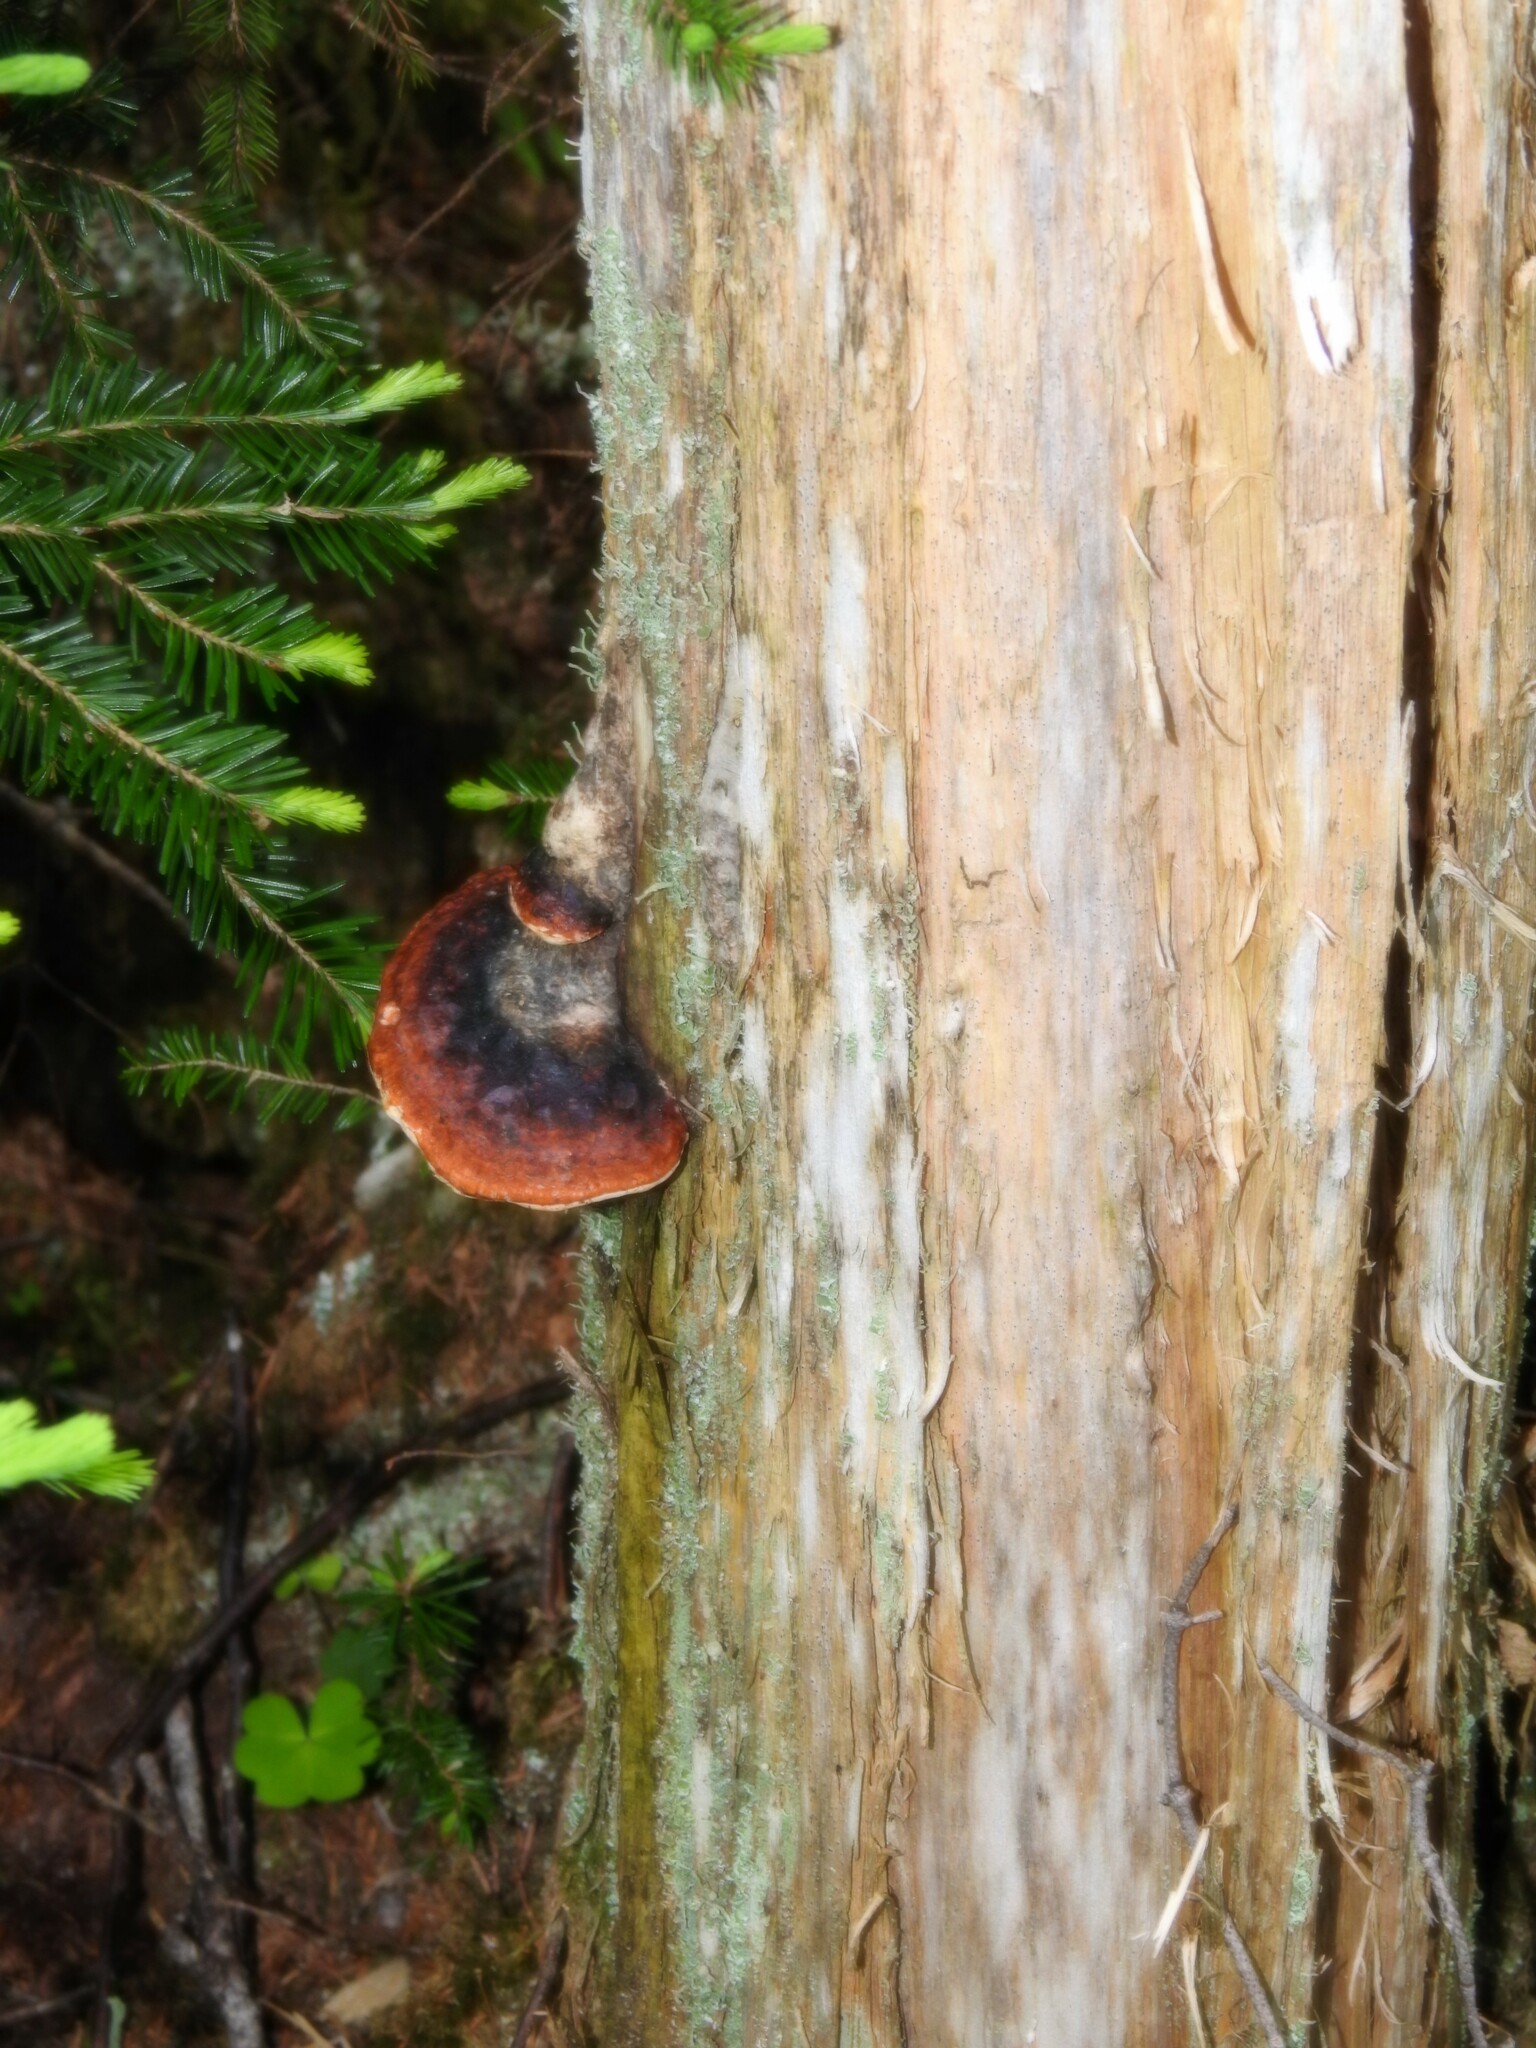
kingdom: Fungi
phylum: Basidiomycota
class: Agaricomycetes
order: Polyporales
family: Fomitopsidaceae
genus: Fomitopsis
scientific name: Fomitopsis mounceae
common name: Northern red belt
